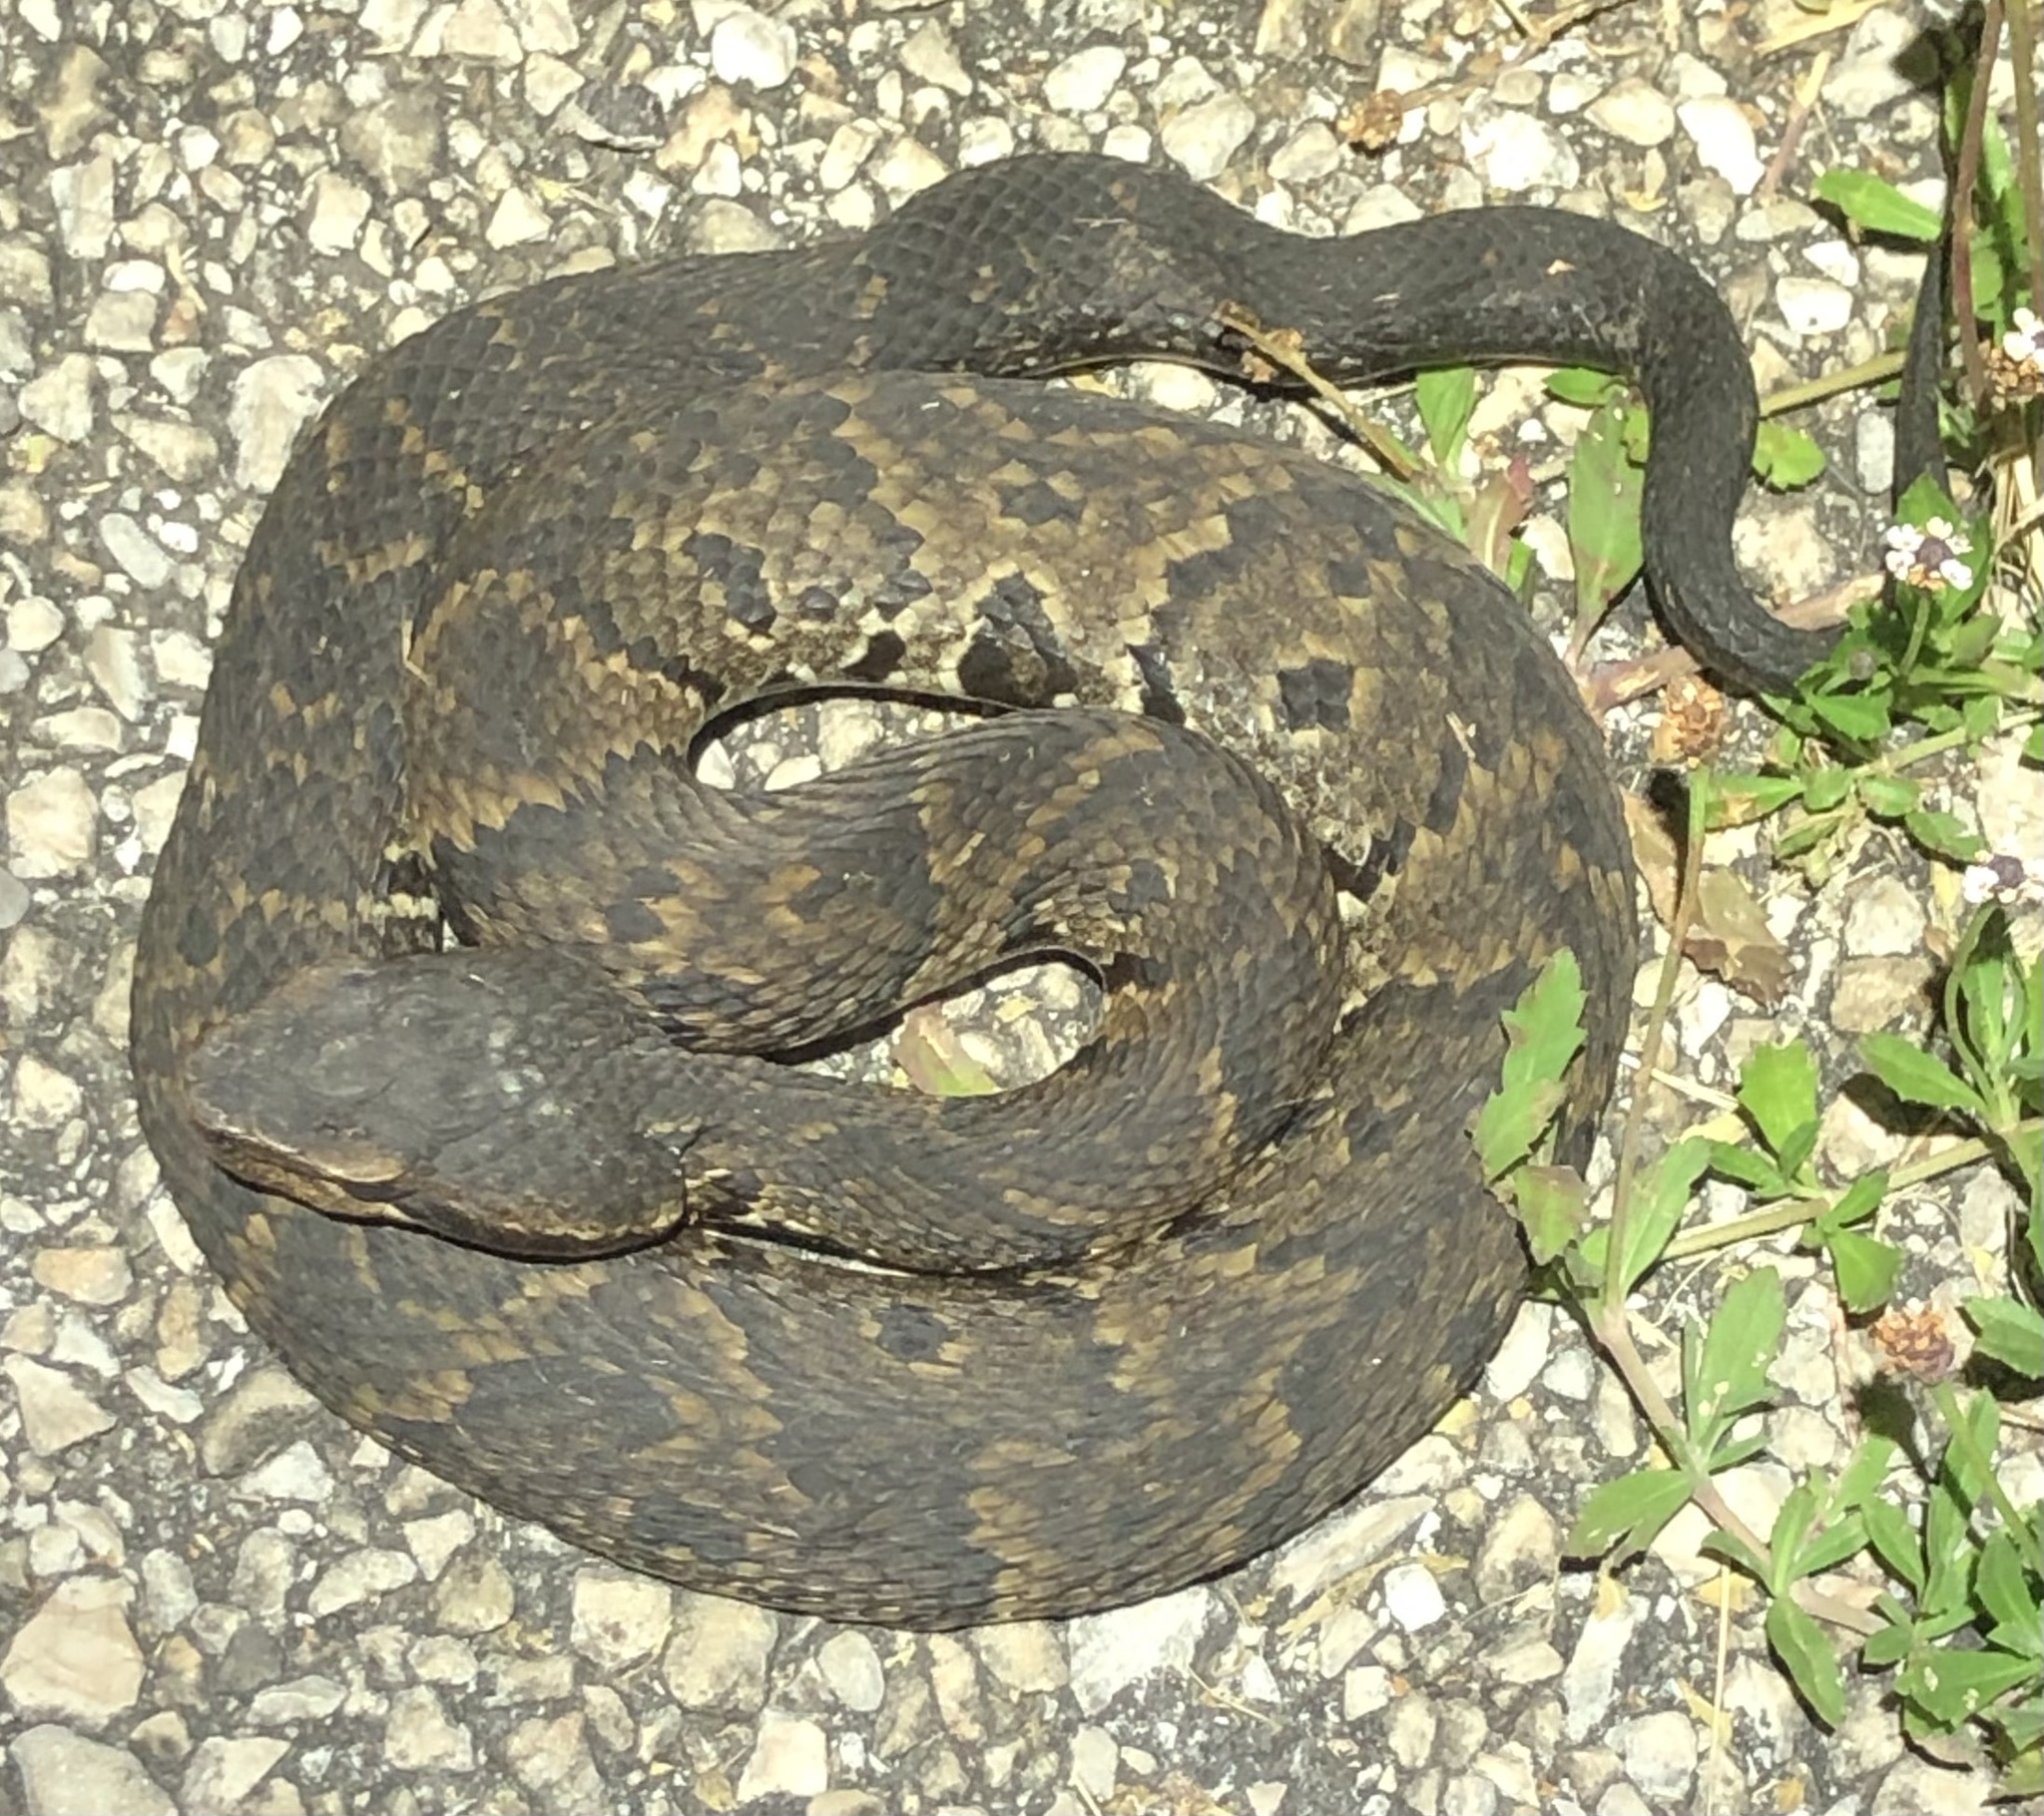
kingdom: Animalia
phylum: Chordata
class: Squamata
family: Viperidae
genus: Agkistrodon
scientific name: Agkistrodon piscivorus
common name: Cottonmouth
